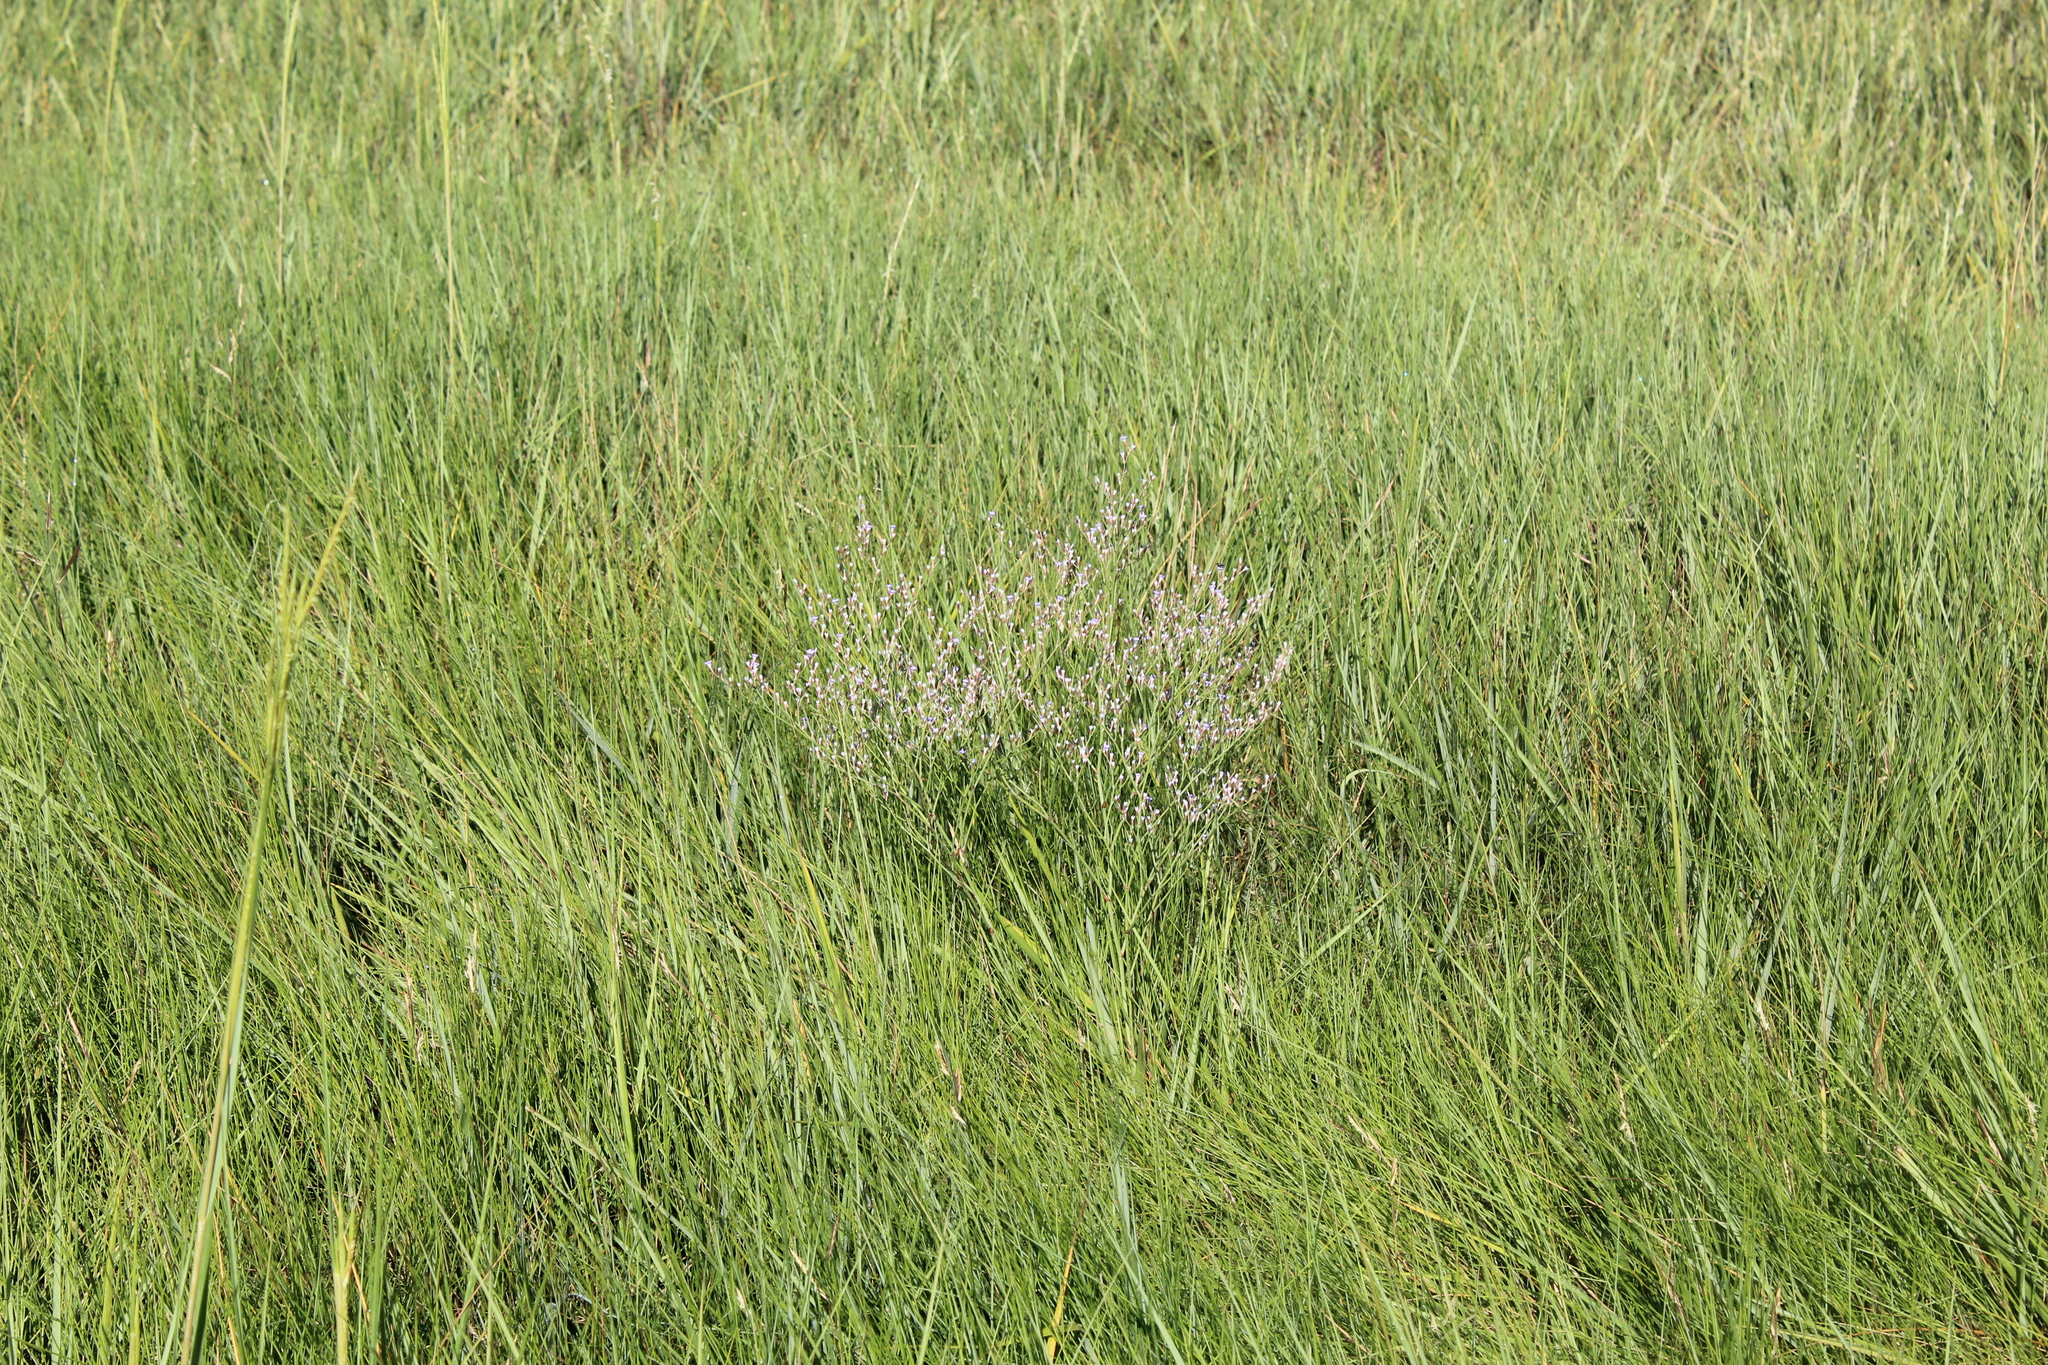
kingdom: Plantae
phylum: Tracheophyta
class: Magnoliopsida
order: Caryophyllales
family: Plumbaginaceae
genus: Limonium
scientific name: Limonium carolinianum
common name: Carolina sea lavender
